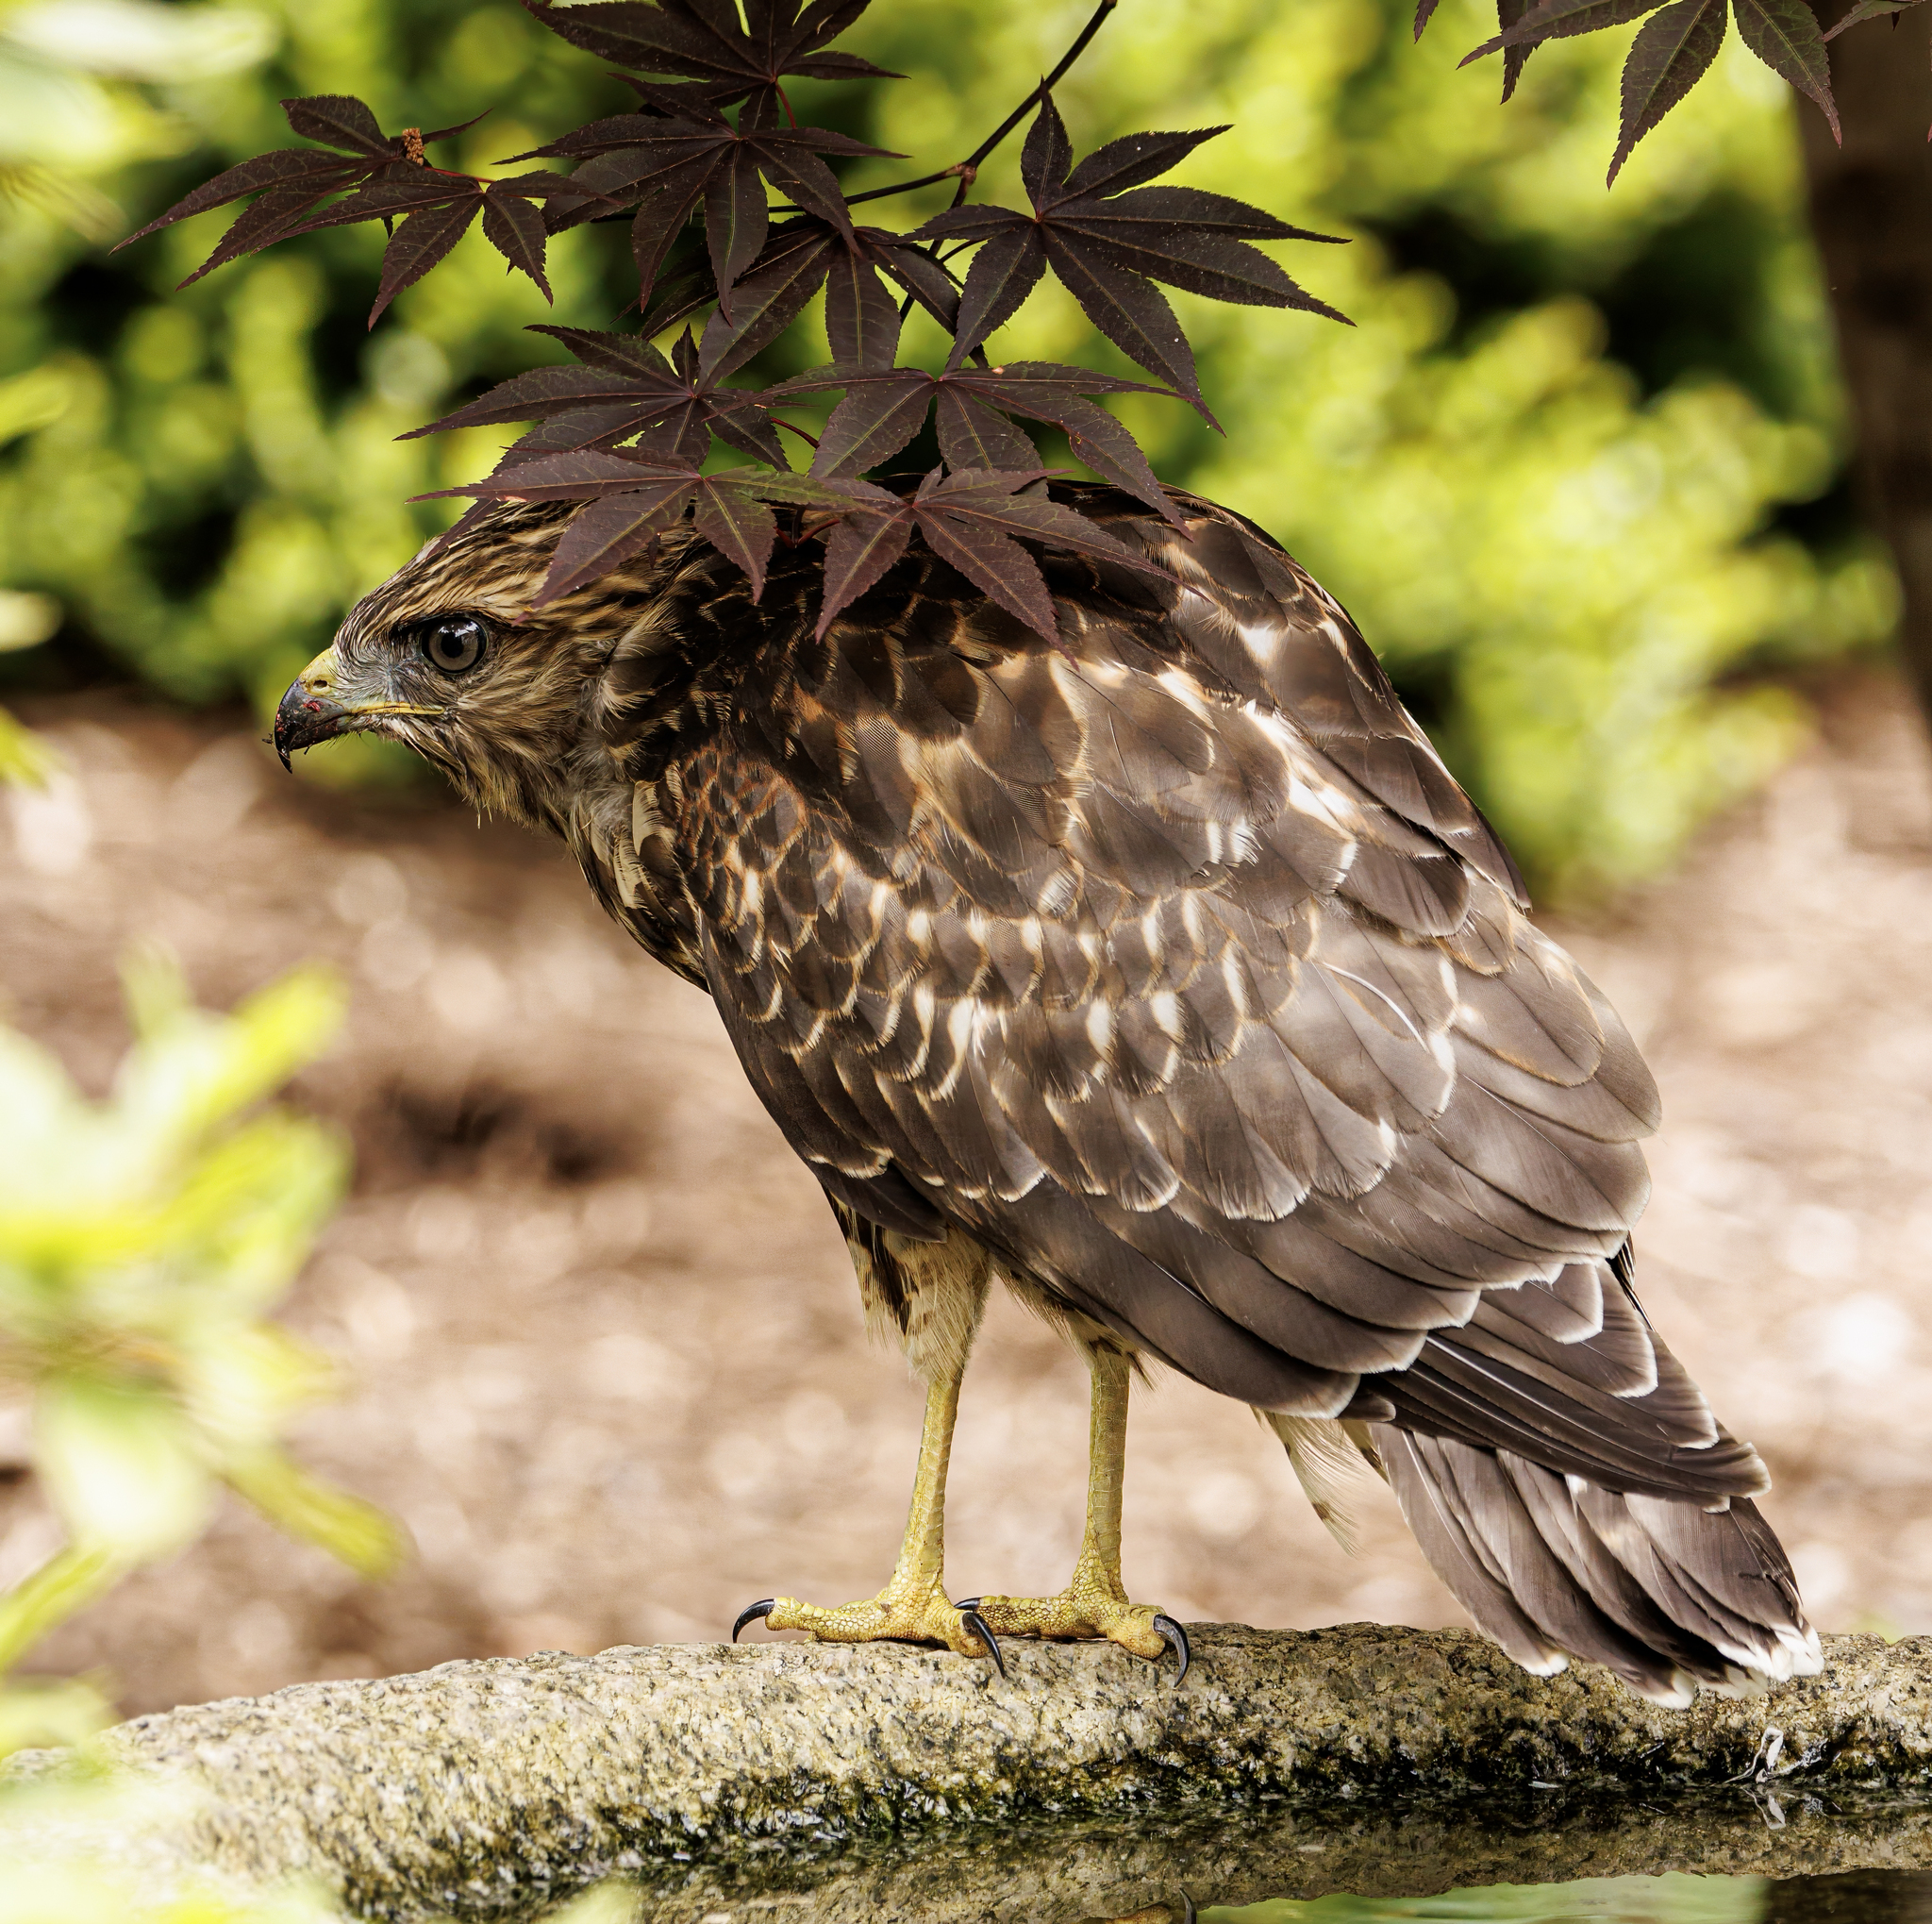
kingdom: Animalia
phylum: Chordata
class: Aves
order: Accipitriformes
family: Accipitridae
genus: Buteo
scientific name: Buteo lineatus
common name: Red-shouldered hawk
